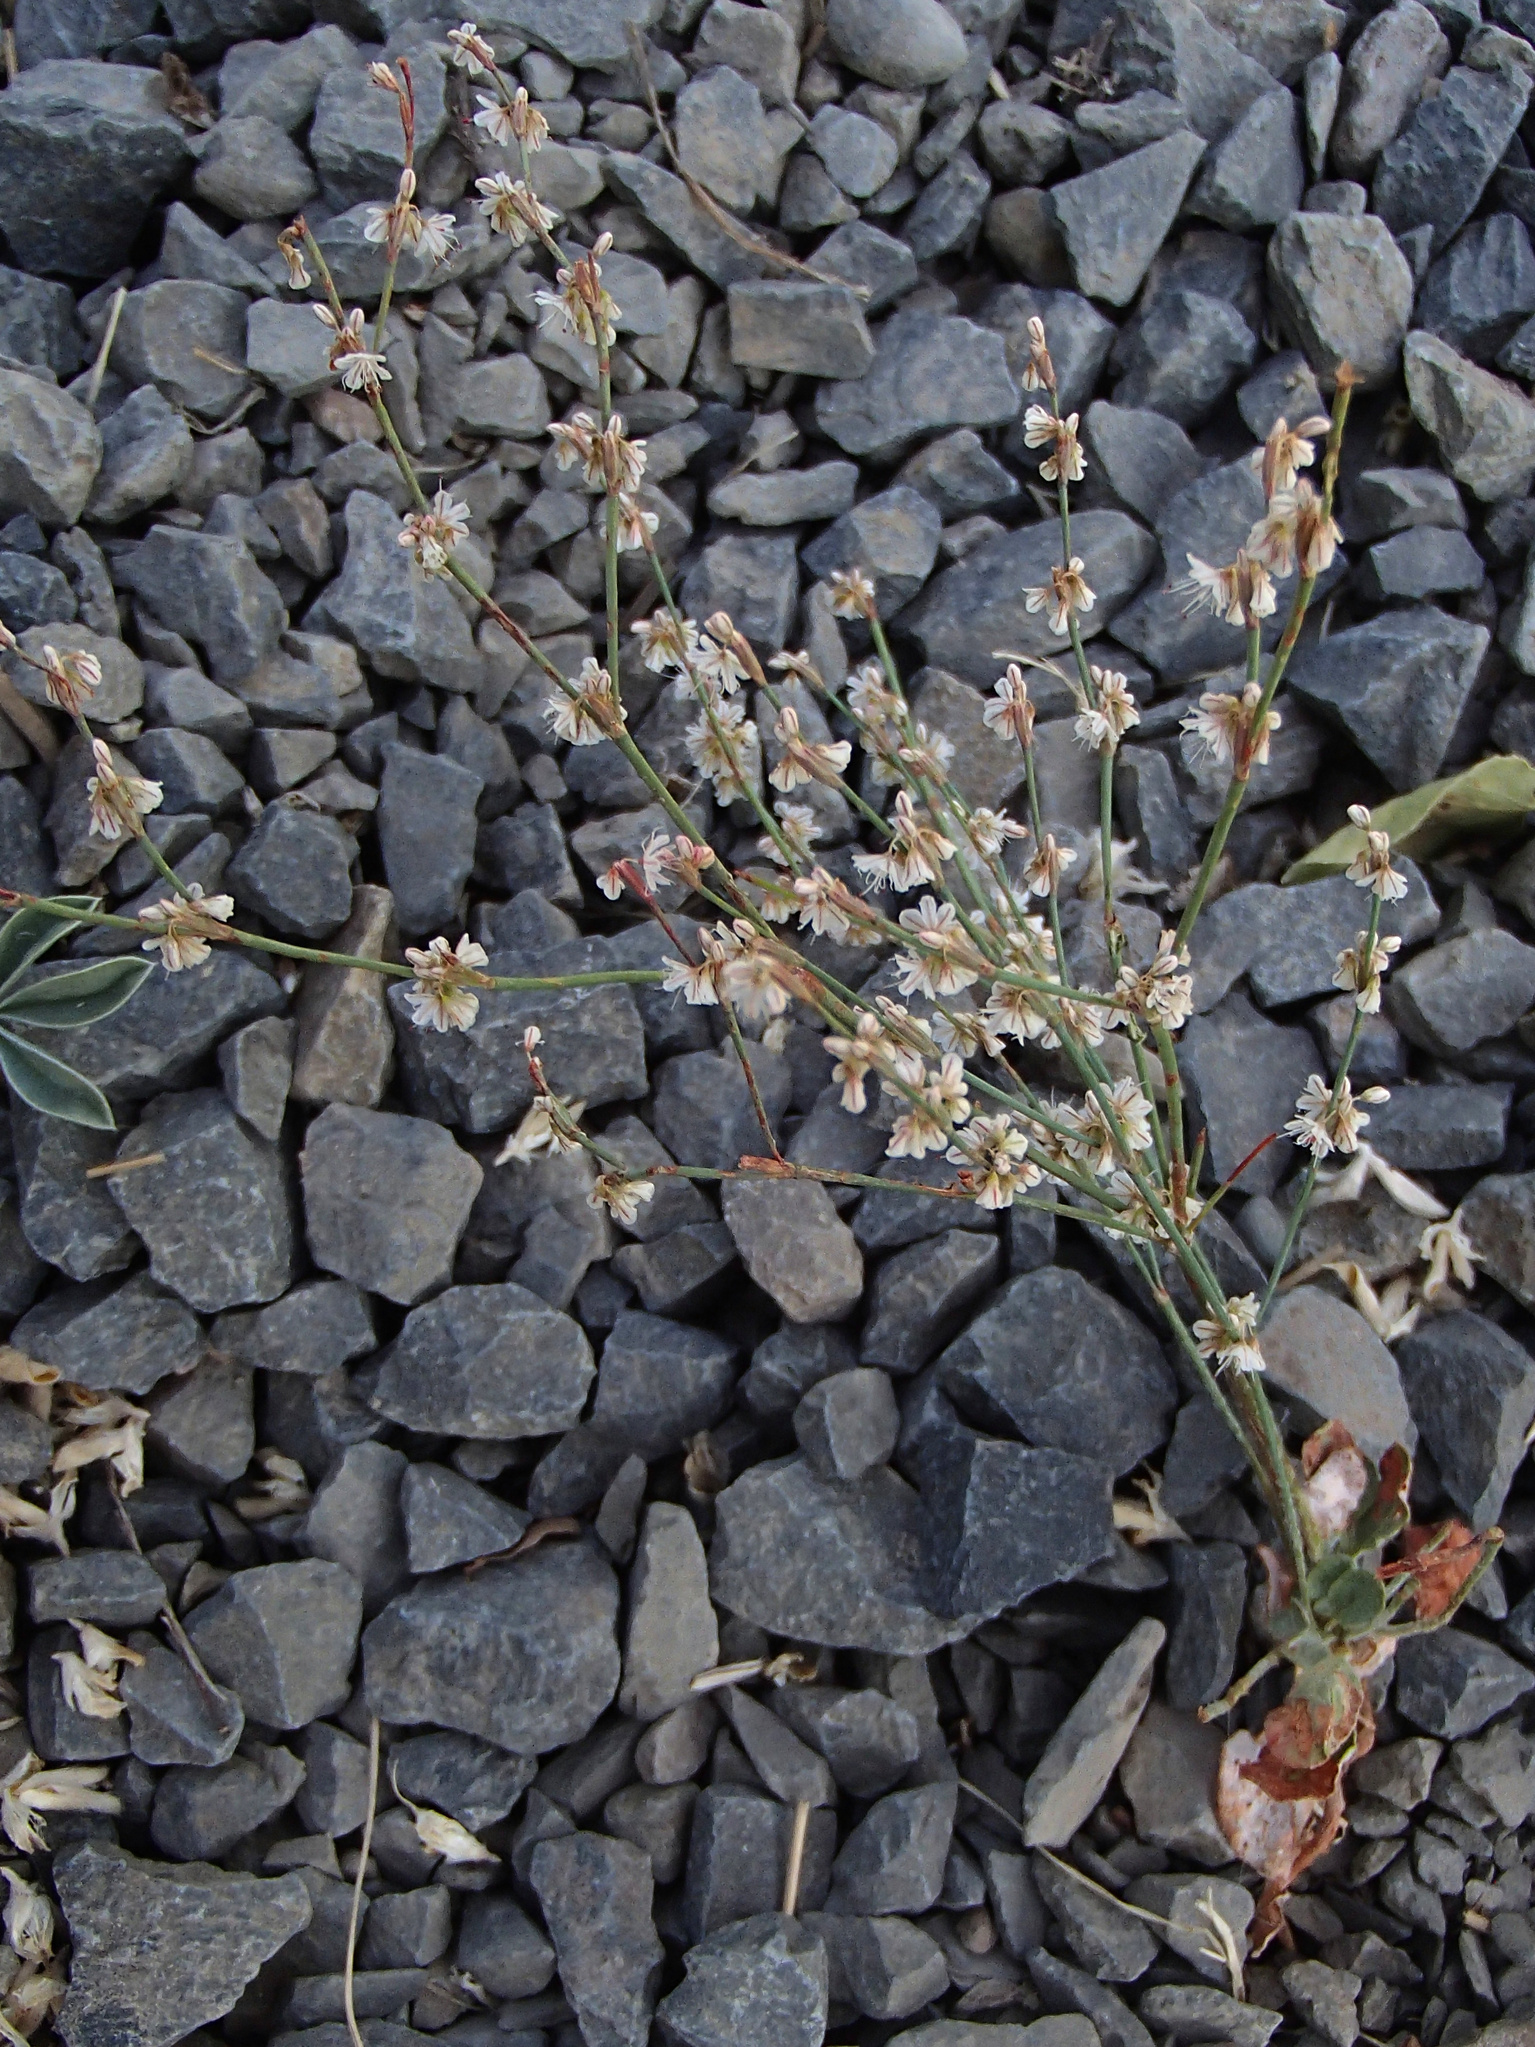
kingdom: Plantae
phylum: Tracheophyta
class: Magnoliopsida
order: Caryophyllales
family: Polygonaceae
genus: Eriogonum
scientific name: Eriogonum vimineum
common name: Wicker buckwheat
